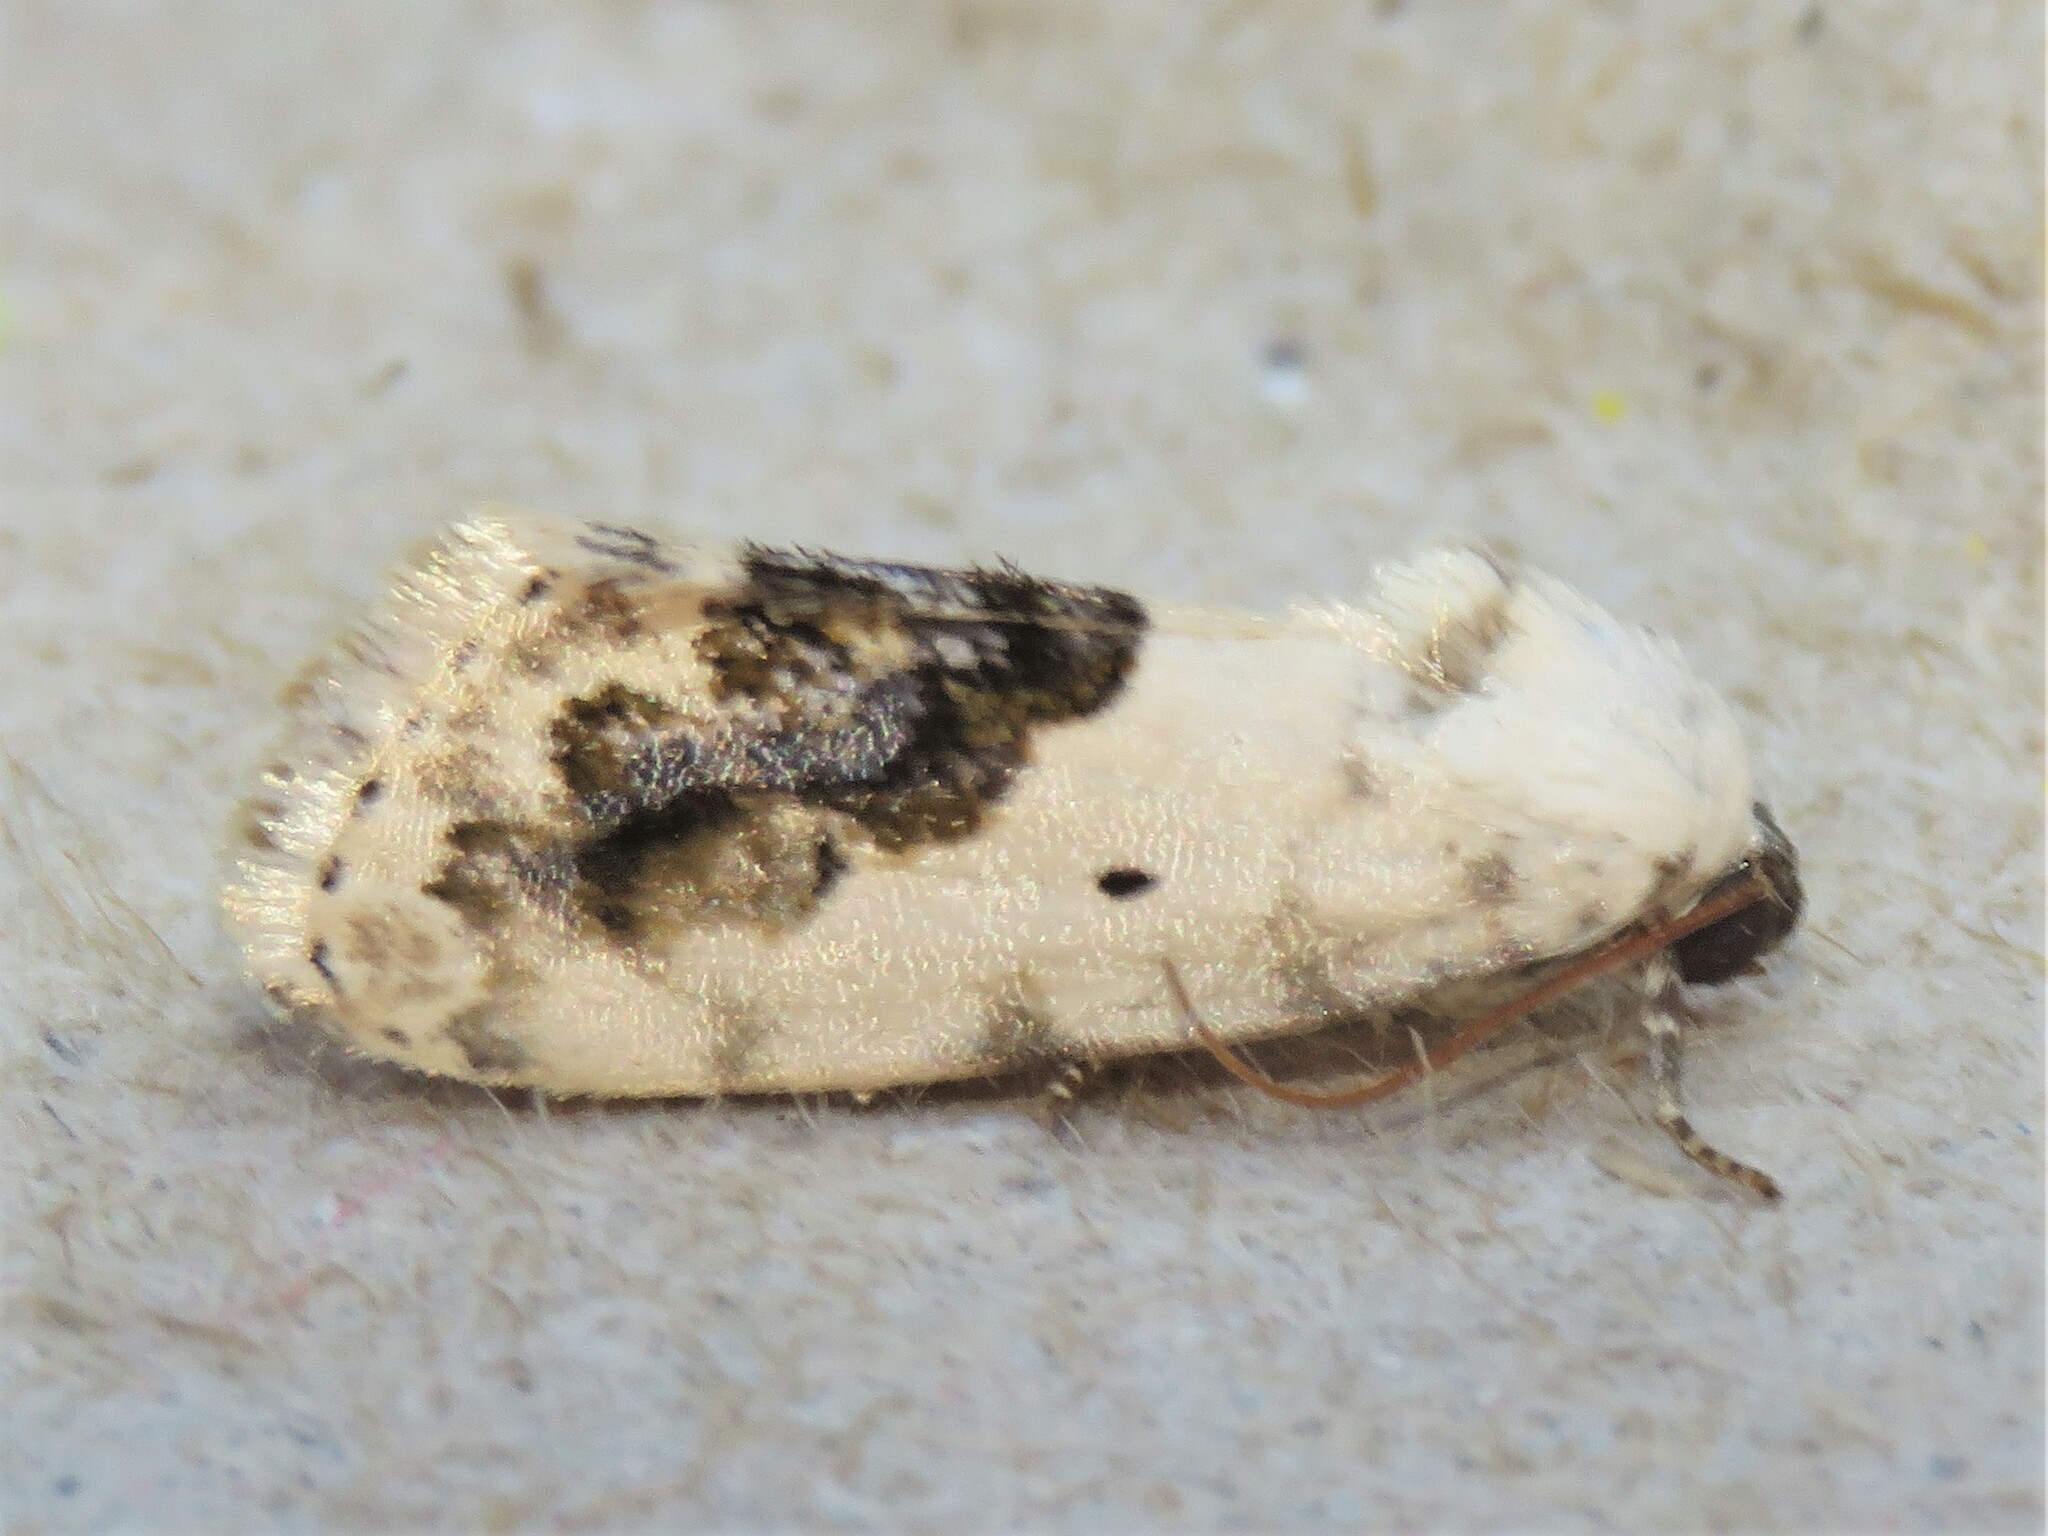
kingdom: Animalia
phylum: Arthropoda
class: Insecta
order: Lepidoptera
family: Noctuidae
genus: Acontia
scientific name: Acontia erastrioides
